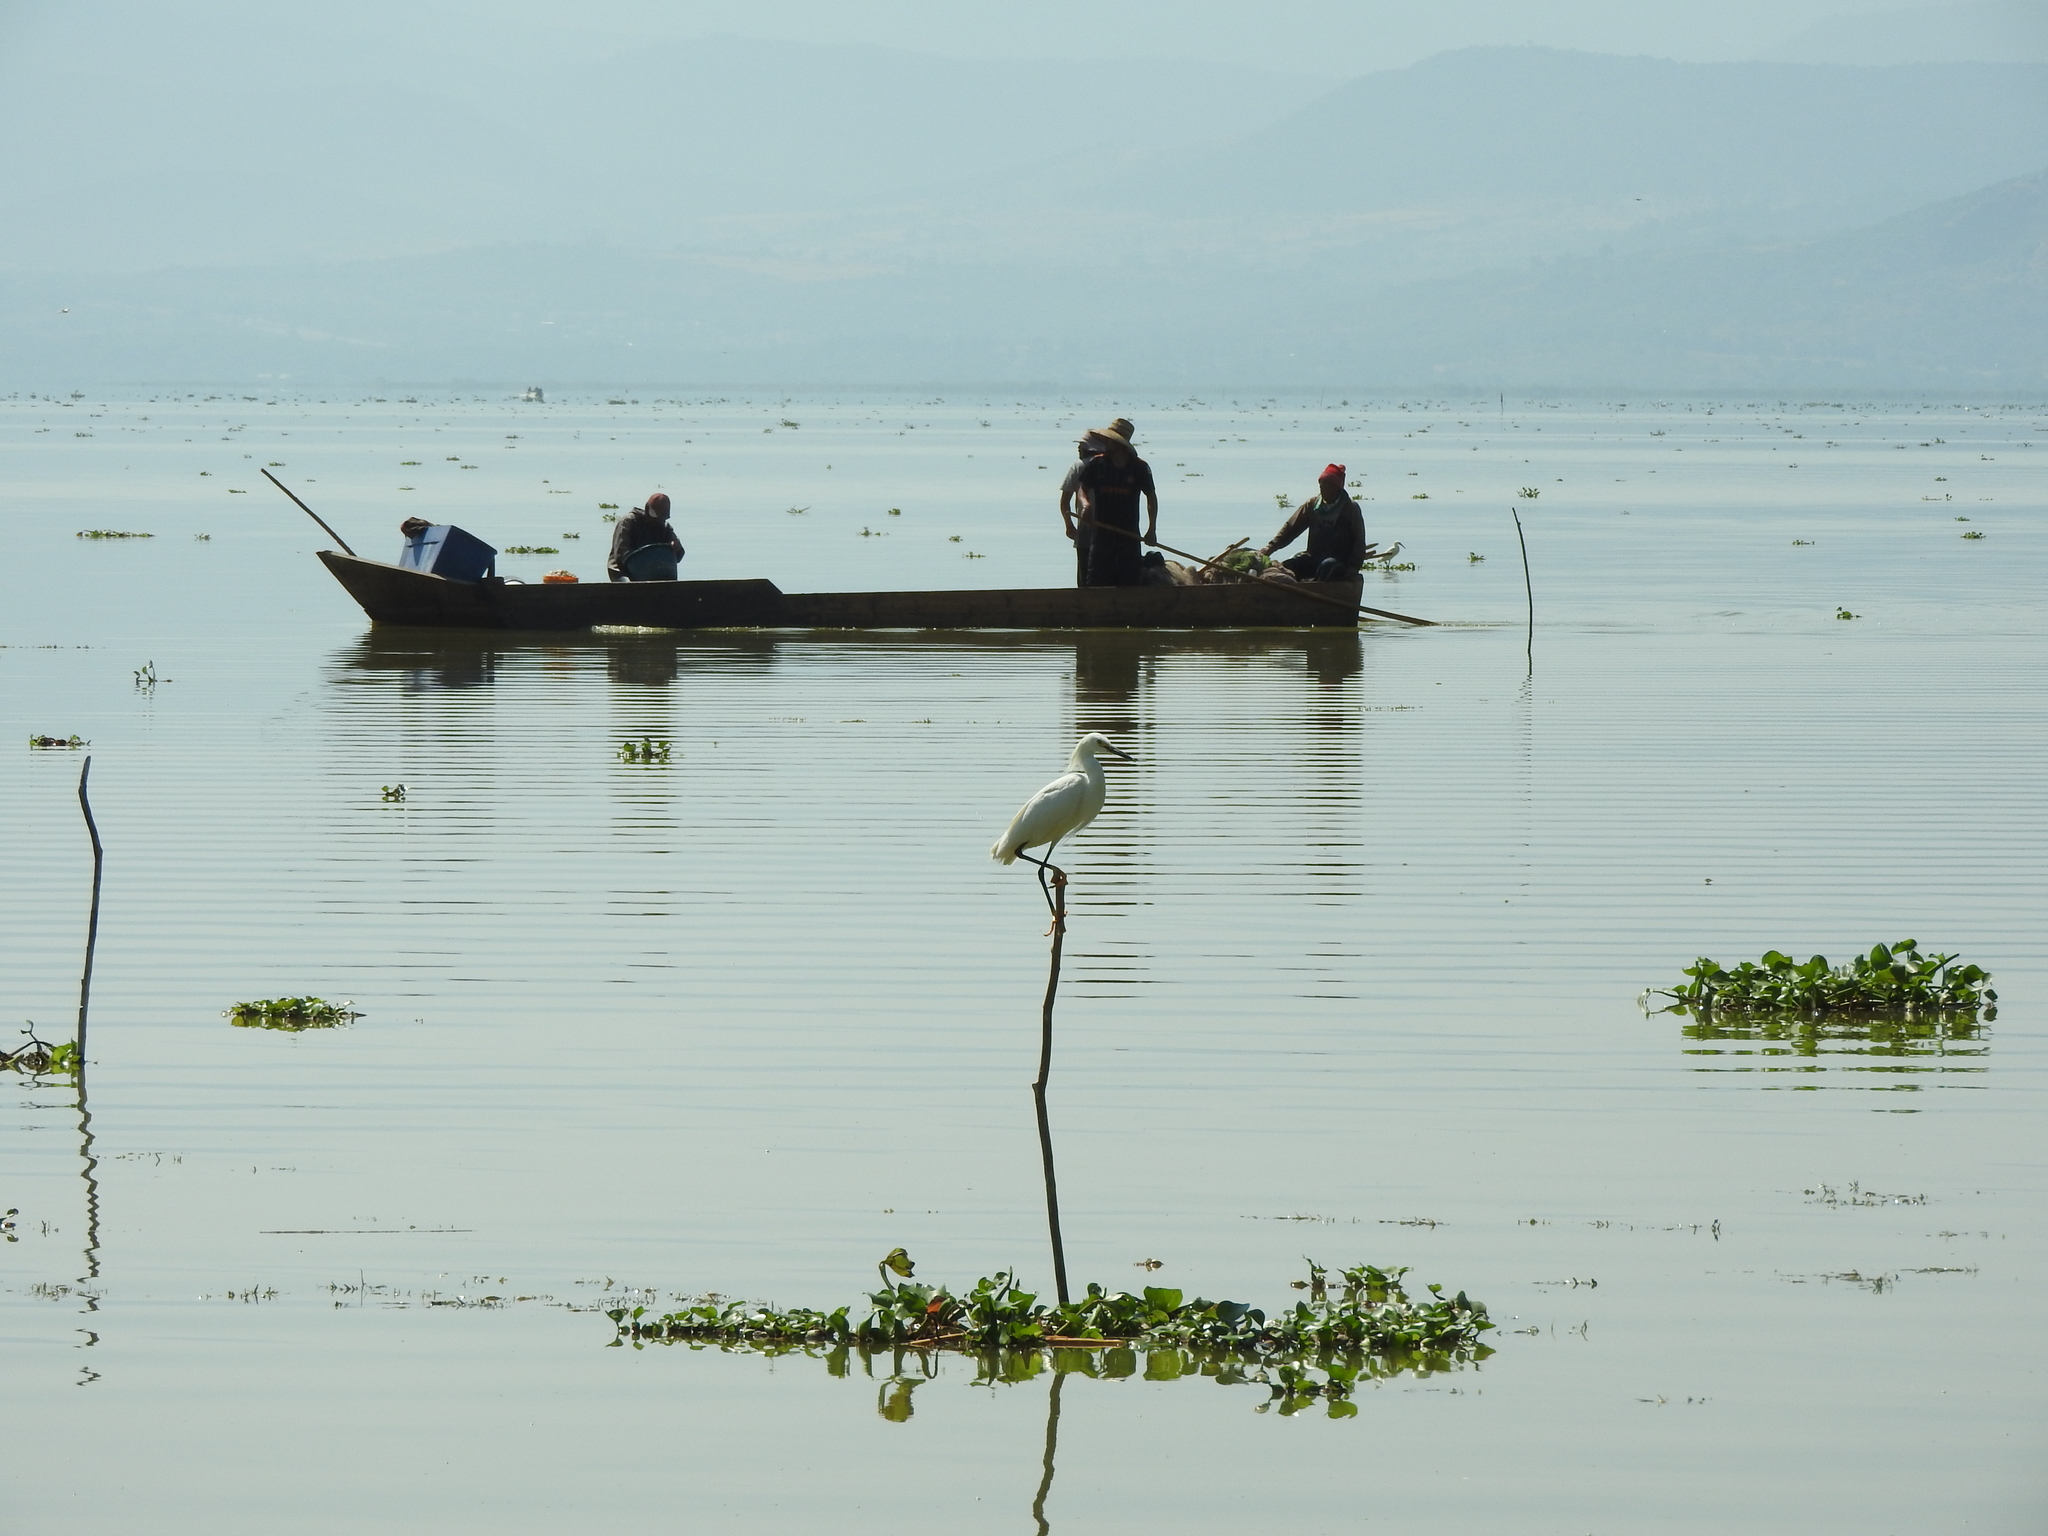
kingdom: Animalia
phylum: Chordata
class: Aves
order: Pelecaniformes
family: Ardeidae
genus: Egretta
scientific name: Egretta thula
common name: Snowy egret
